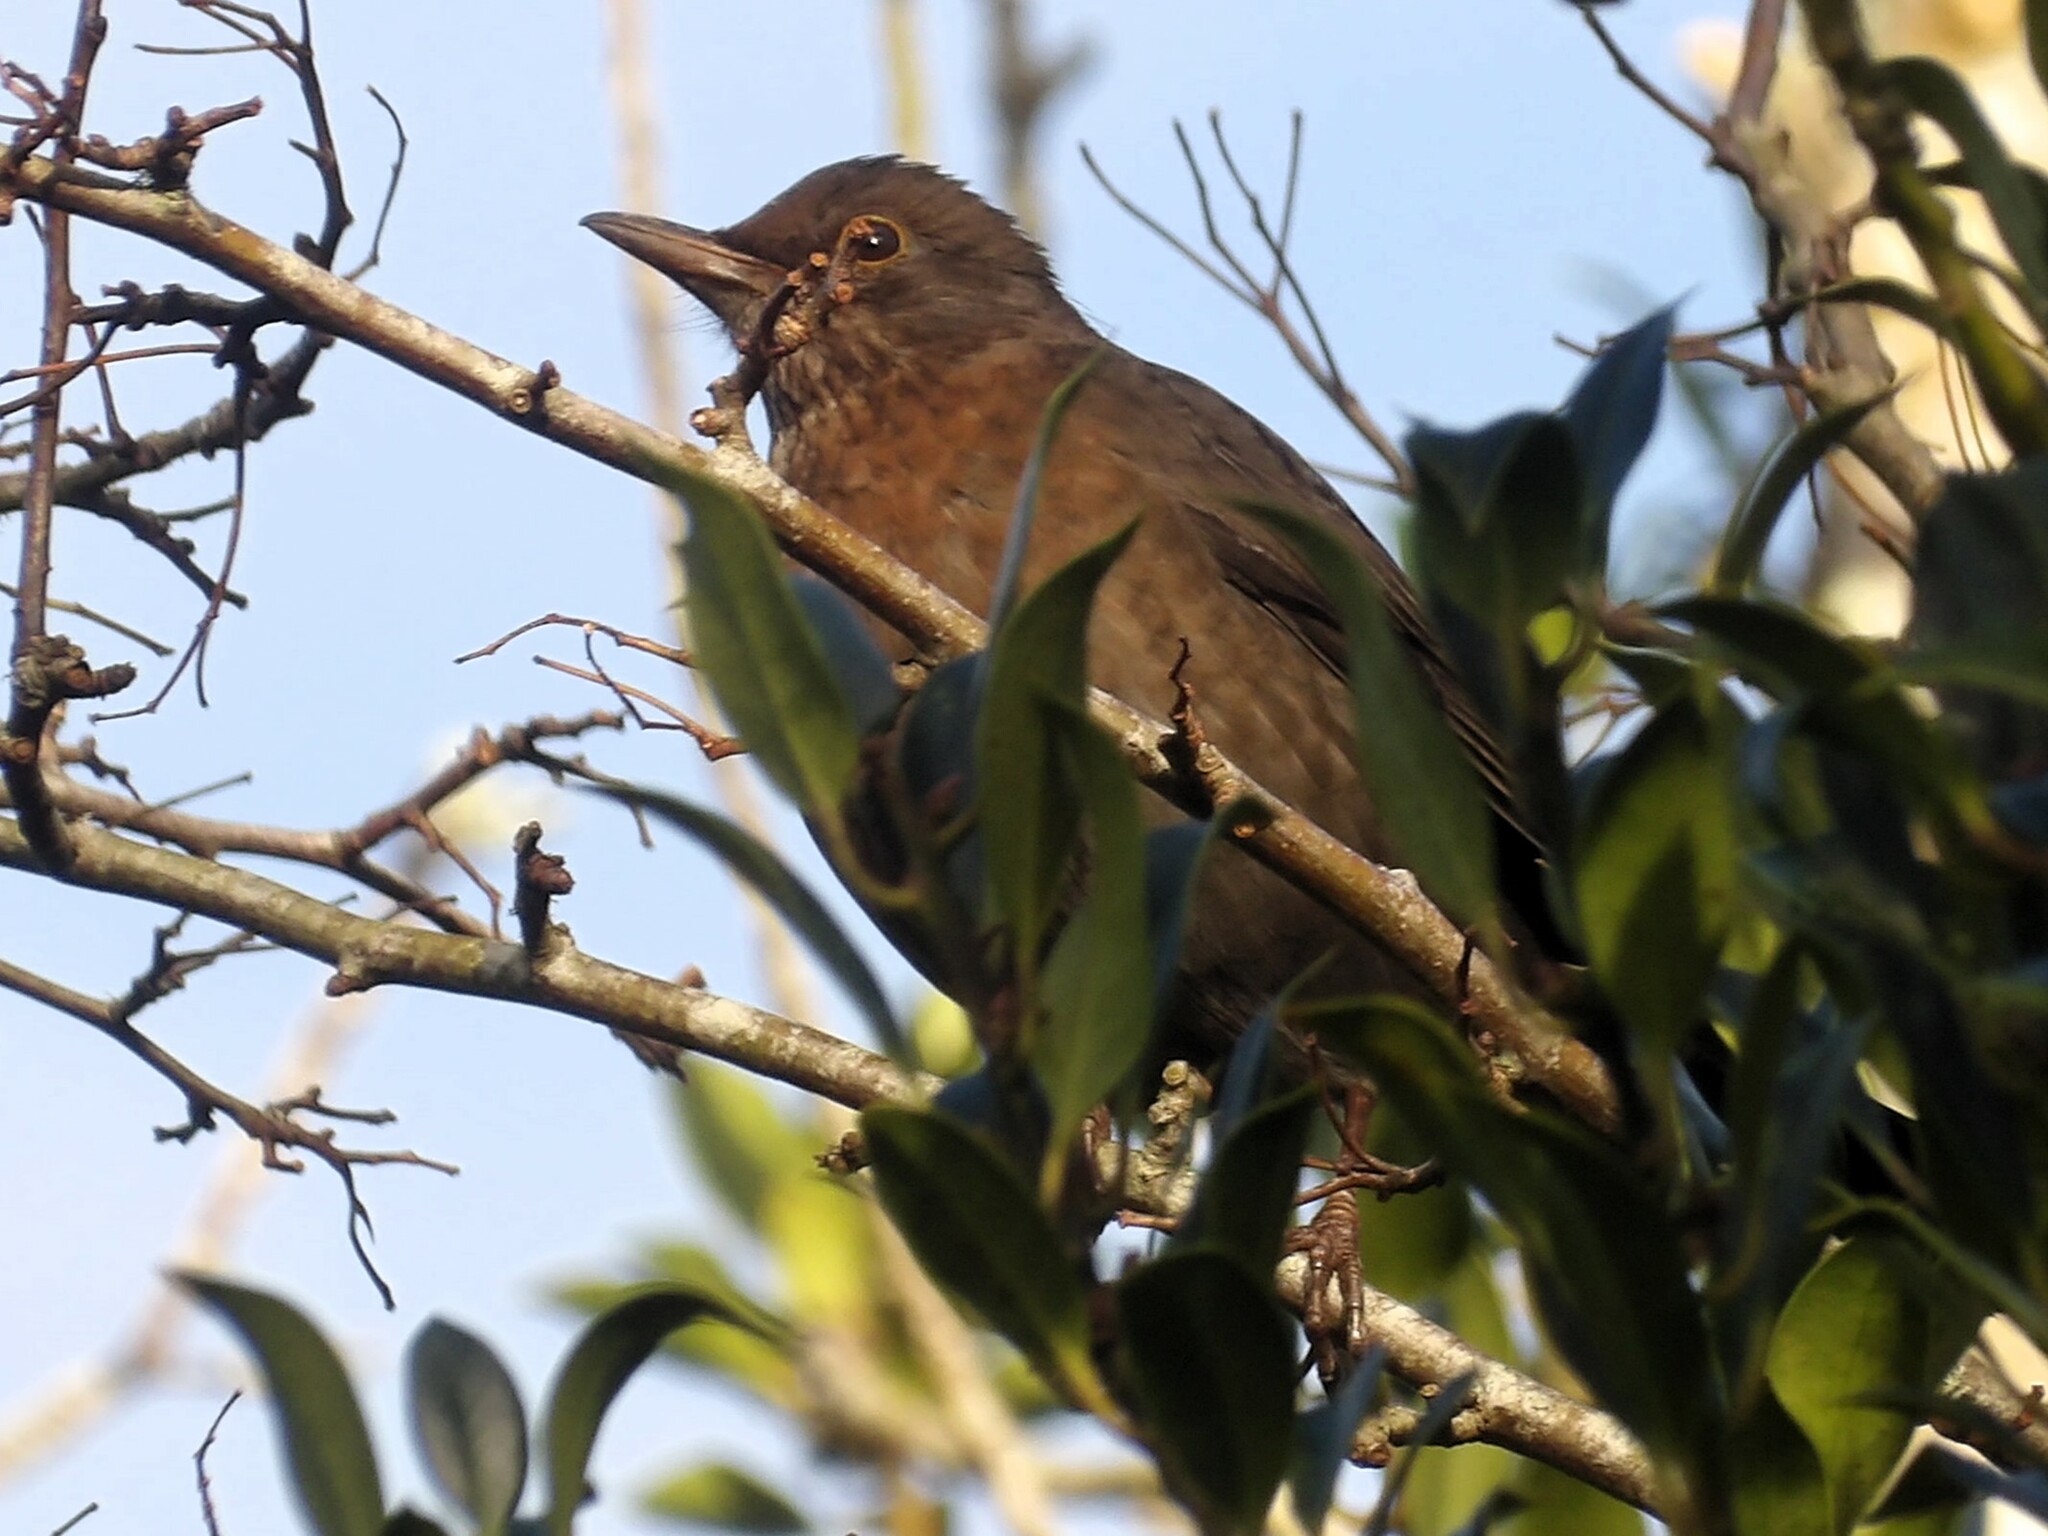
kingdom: Animalia
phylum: Chordata
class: Aves
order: Passeriformes
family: Turdidae
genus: Turdus
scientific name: Turdus merula
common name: Common blackbird
